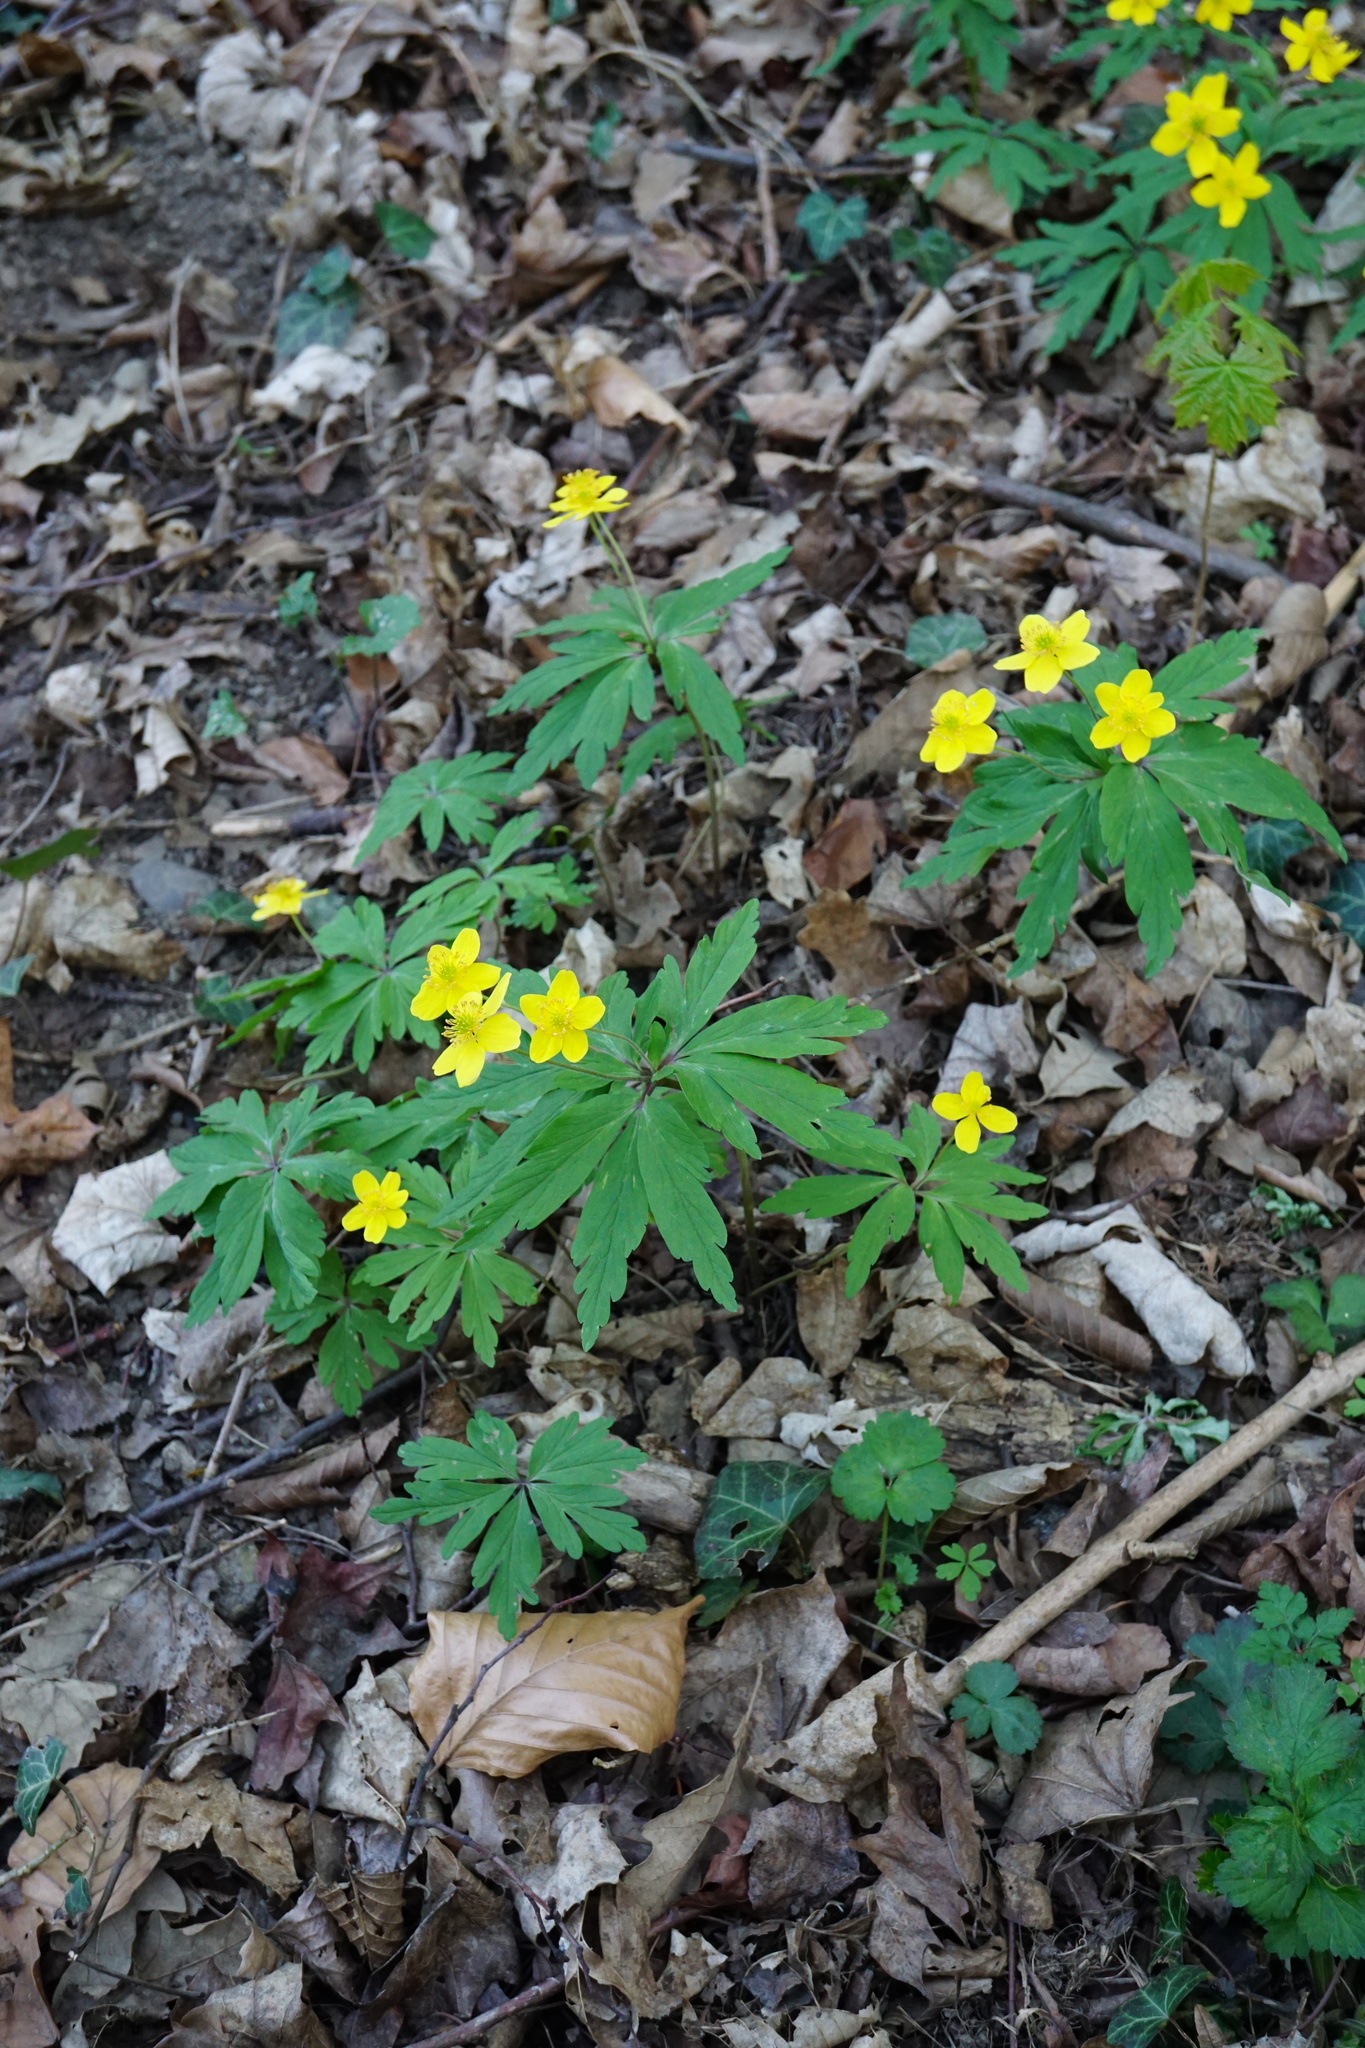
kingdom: Plantae
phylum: Tracheophyta
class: Magnoliopsida
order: Ranunculales
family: Ranunculaceae
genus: Anemone
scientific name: Anemone ranunculoides
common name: Yellow anemone
